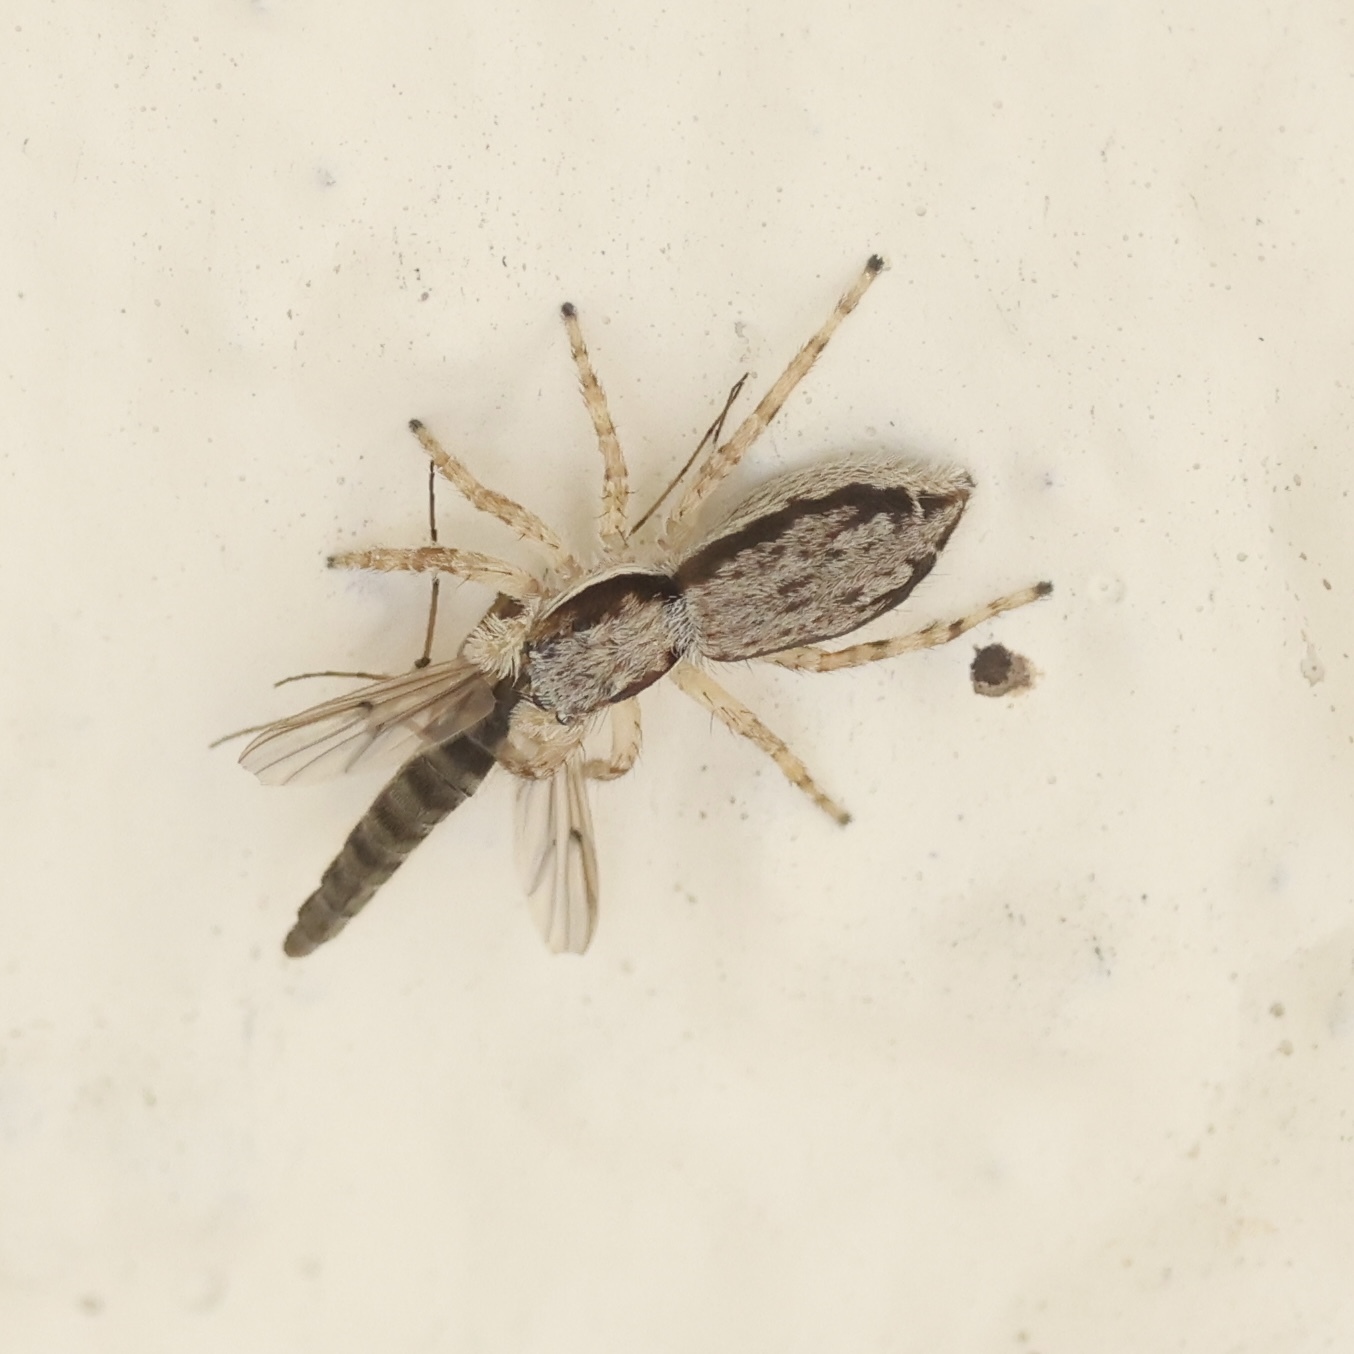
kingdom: Animalia
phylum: Arthropoda
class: Arachnida
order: Araneae
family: Salticidae
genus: Menemerus
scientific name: Menemerus bivittatus
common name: Gray wall jumper
